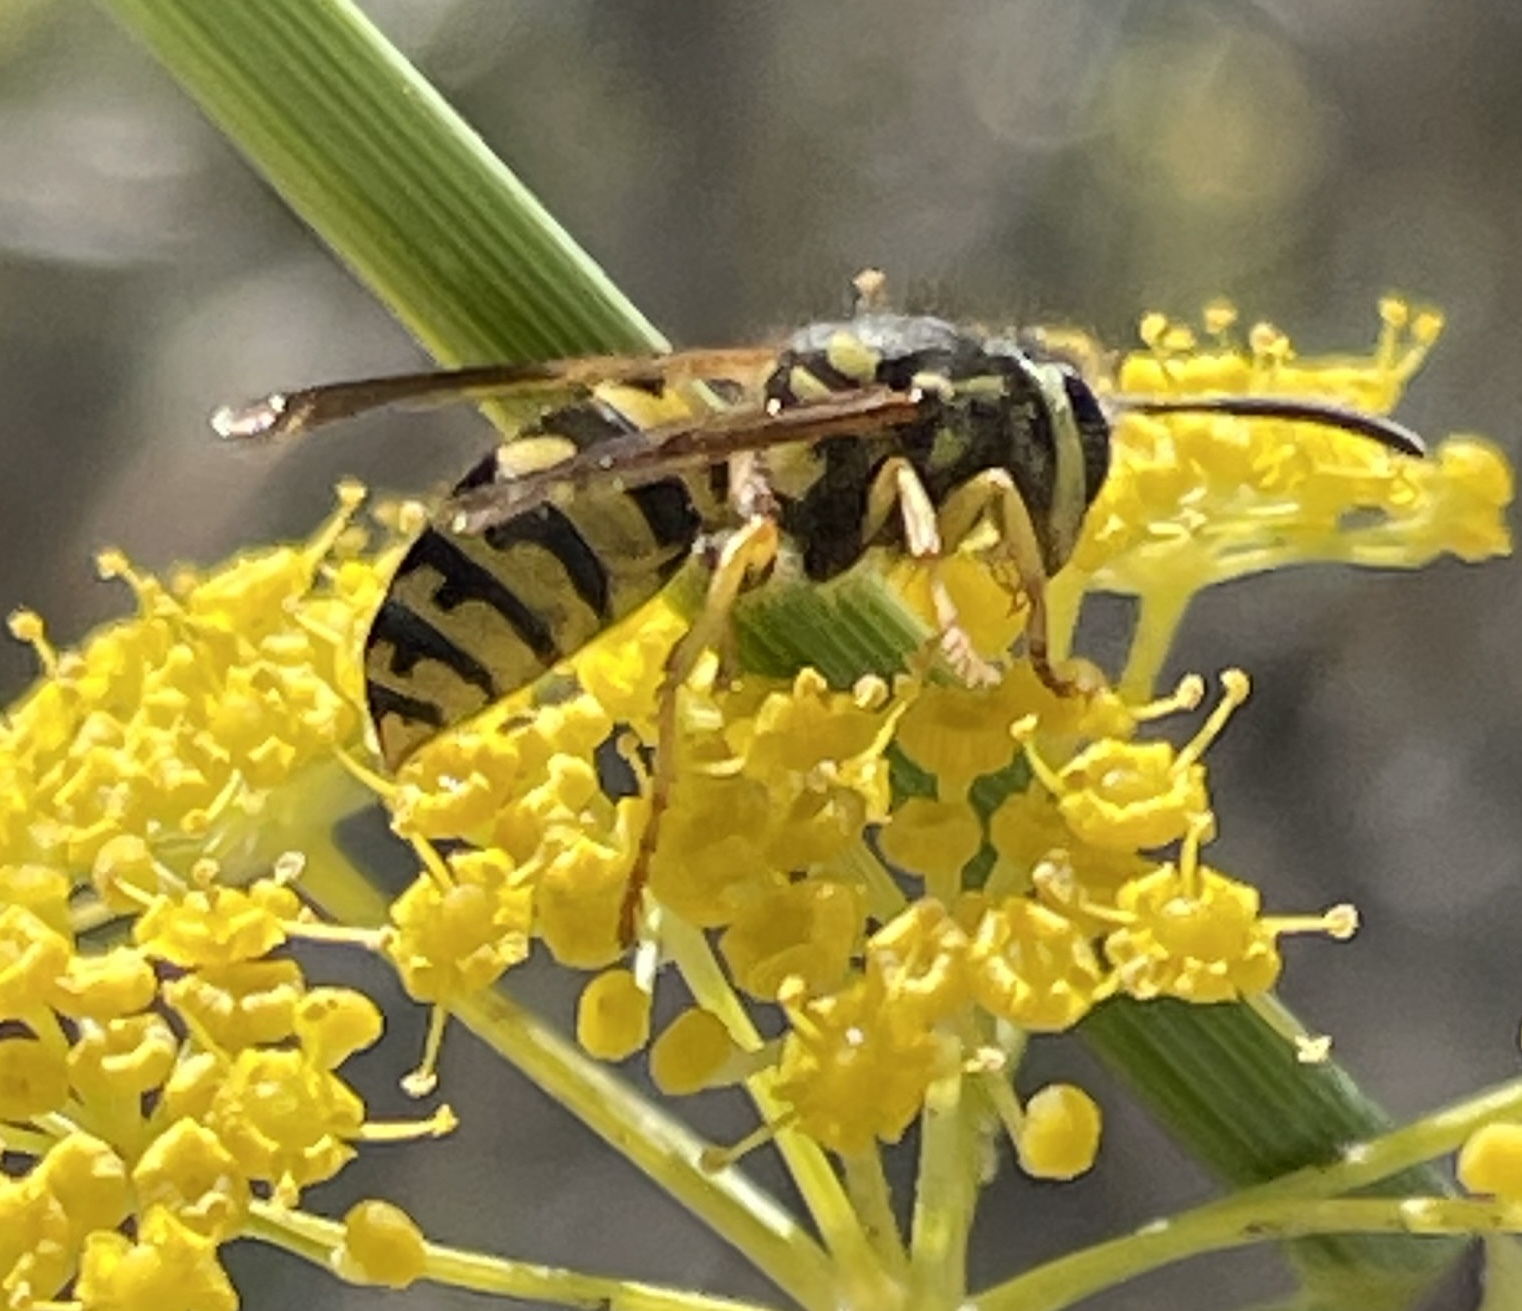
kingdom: Animalia
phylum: Arthropoda
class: Insecta
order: Hymenoptera
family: Vespidae
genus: Vespula
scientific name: Vespula pensylvanica
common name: Western yellowjacket
